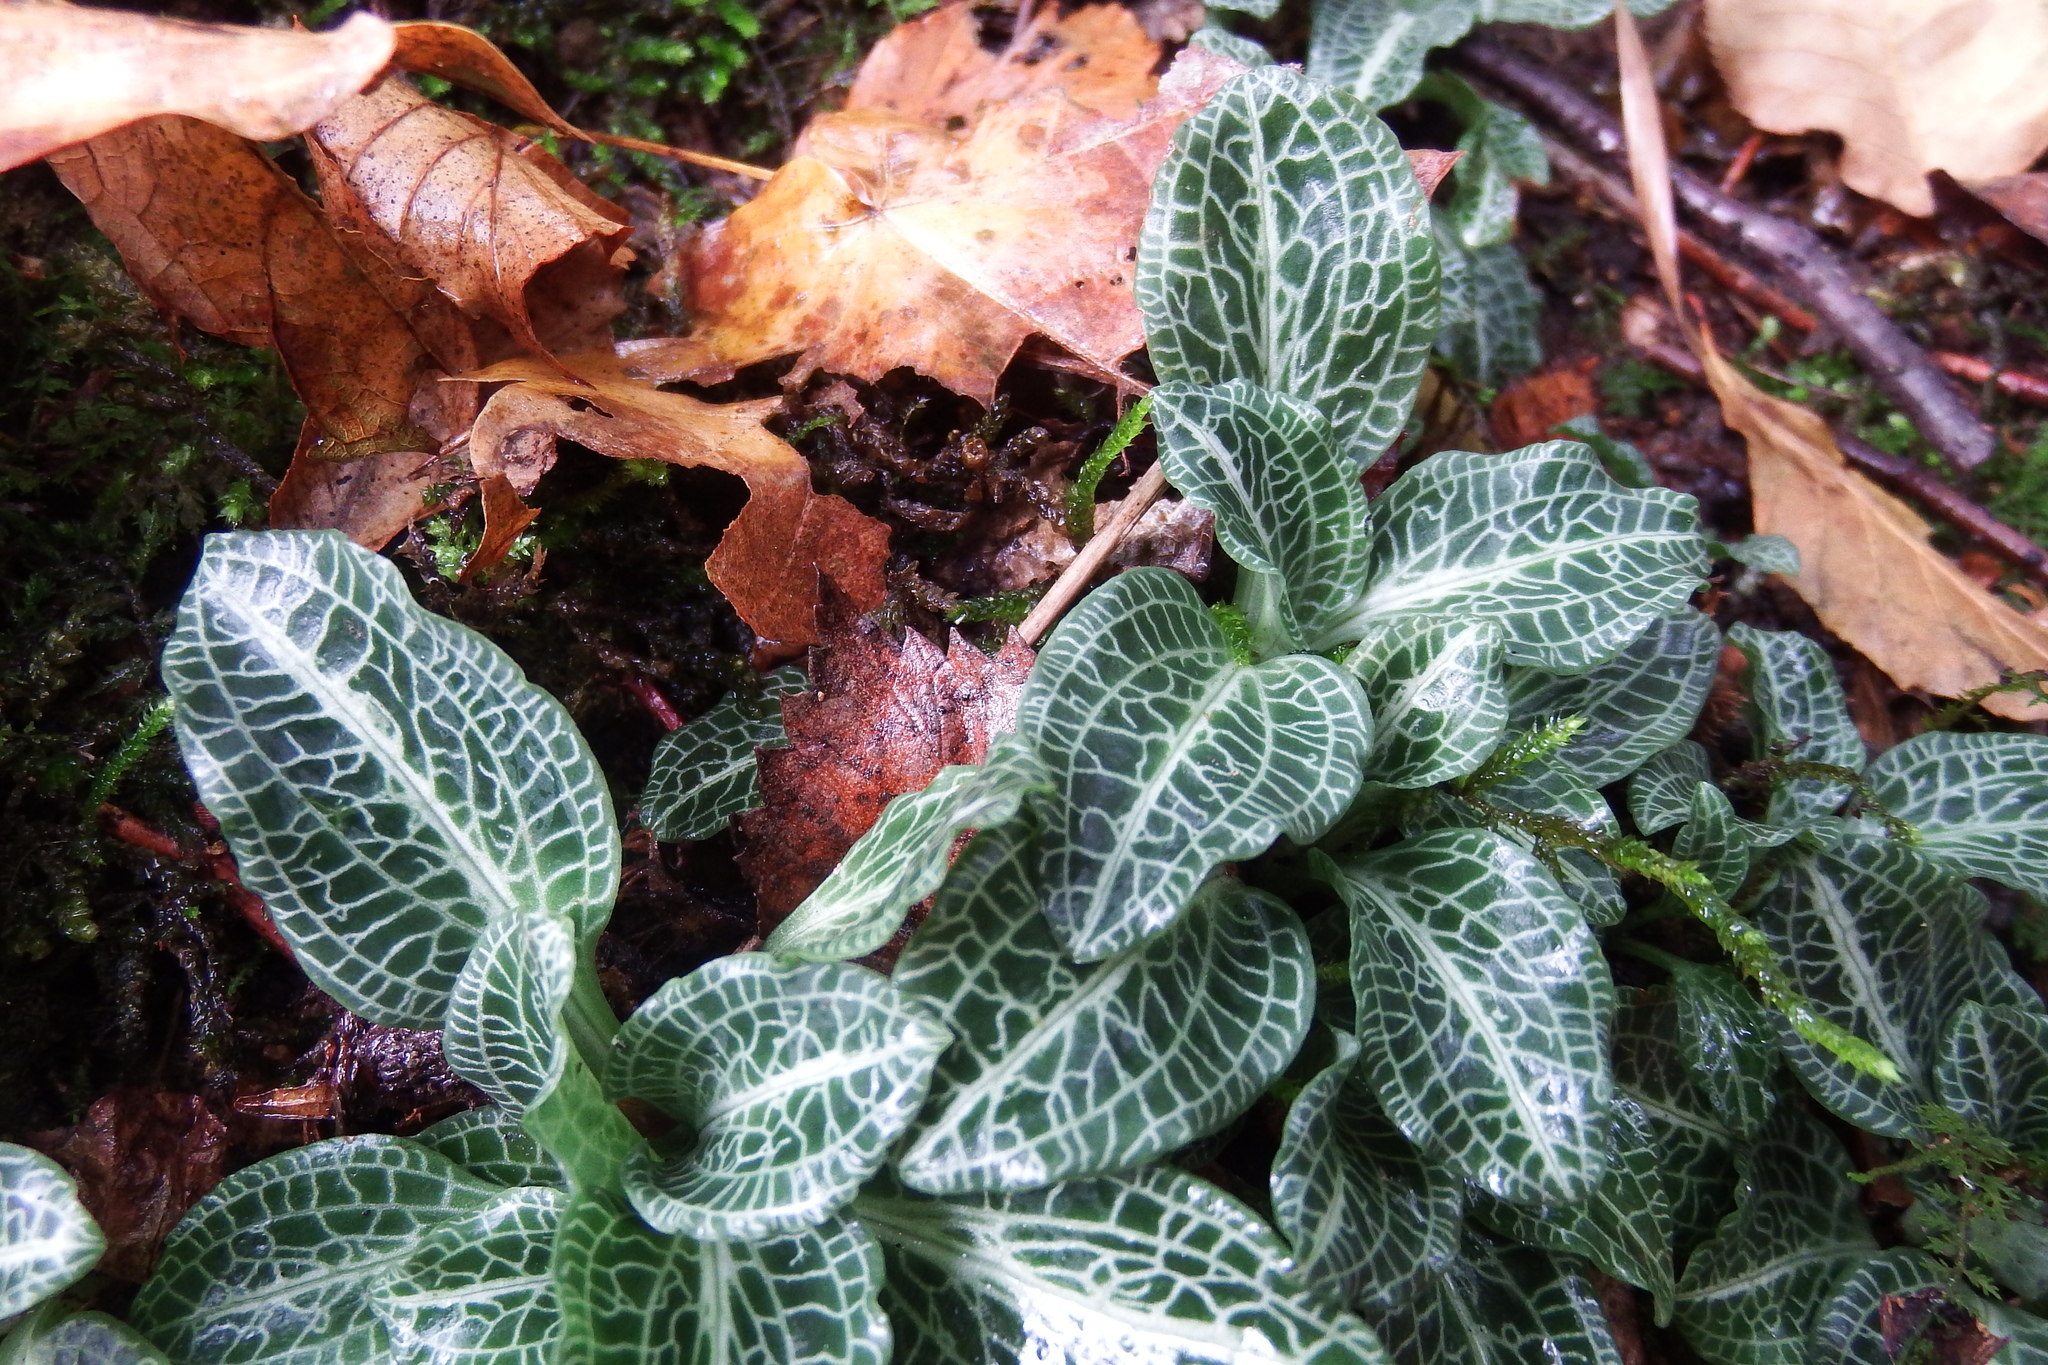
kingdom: Plantae
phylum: Tracheophyta
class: Liliopsida
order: Asparagales
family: Orchidaceae
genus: Goodyera
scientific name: Goodyera pubescens
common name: Downy rattlesnake-plantain
